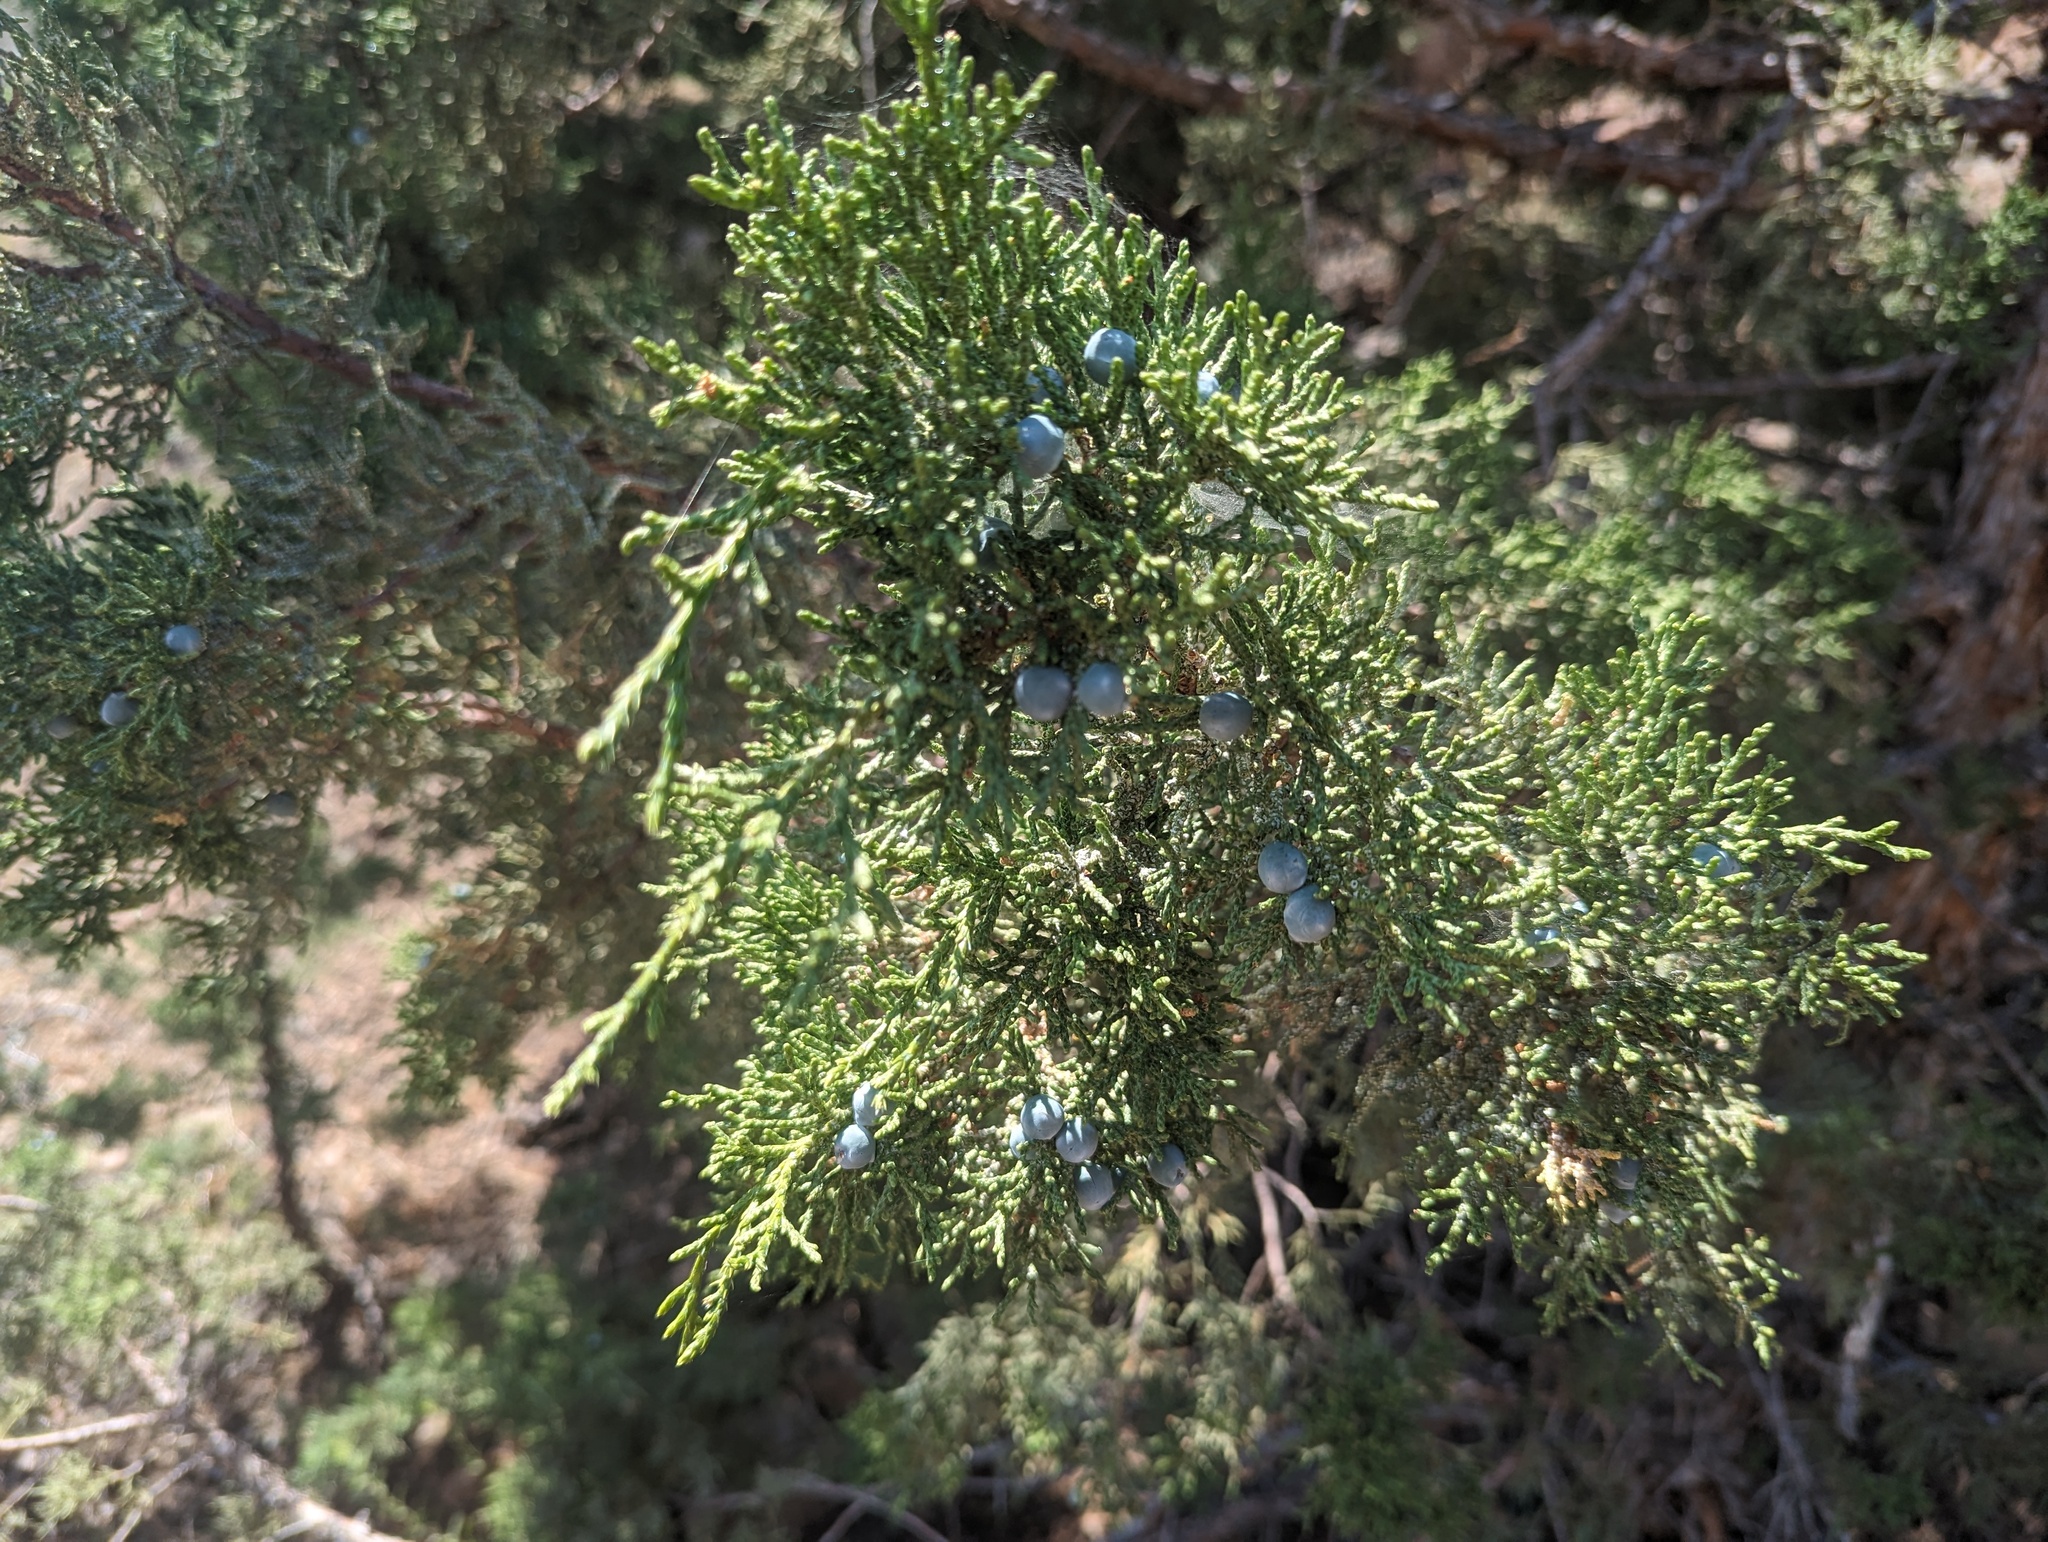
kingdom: Plantae
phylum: Tracheophyta
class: Pinopsida
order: Pinales
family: Cupressaceae
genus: Juniperus
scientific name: Juniperus occidentalis
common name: Western juniper
